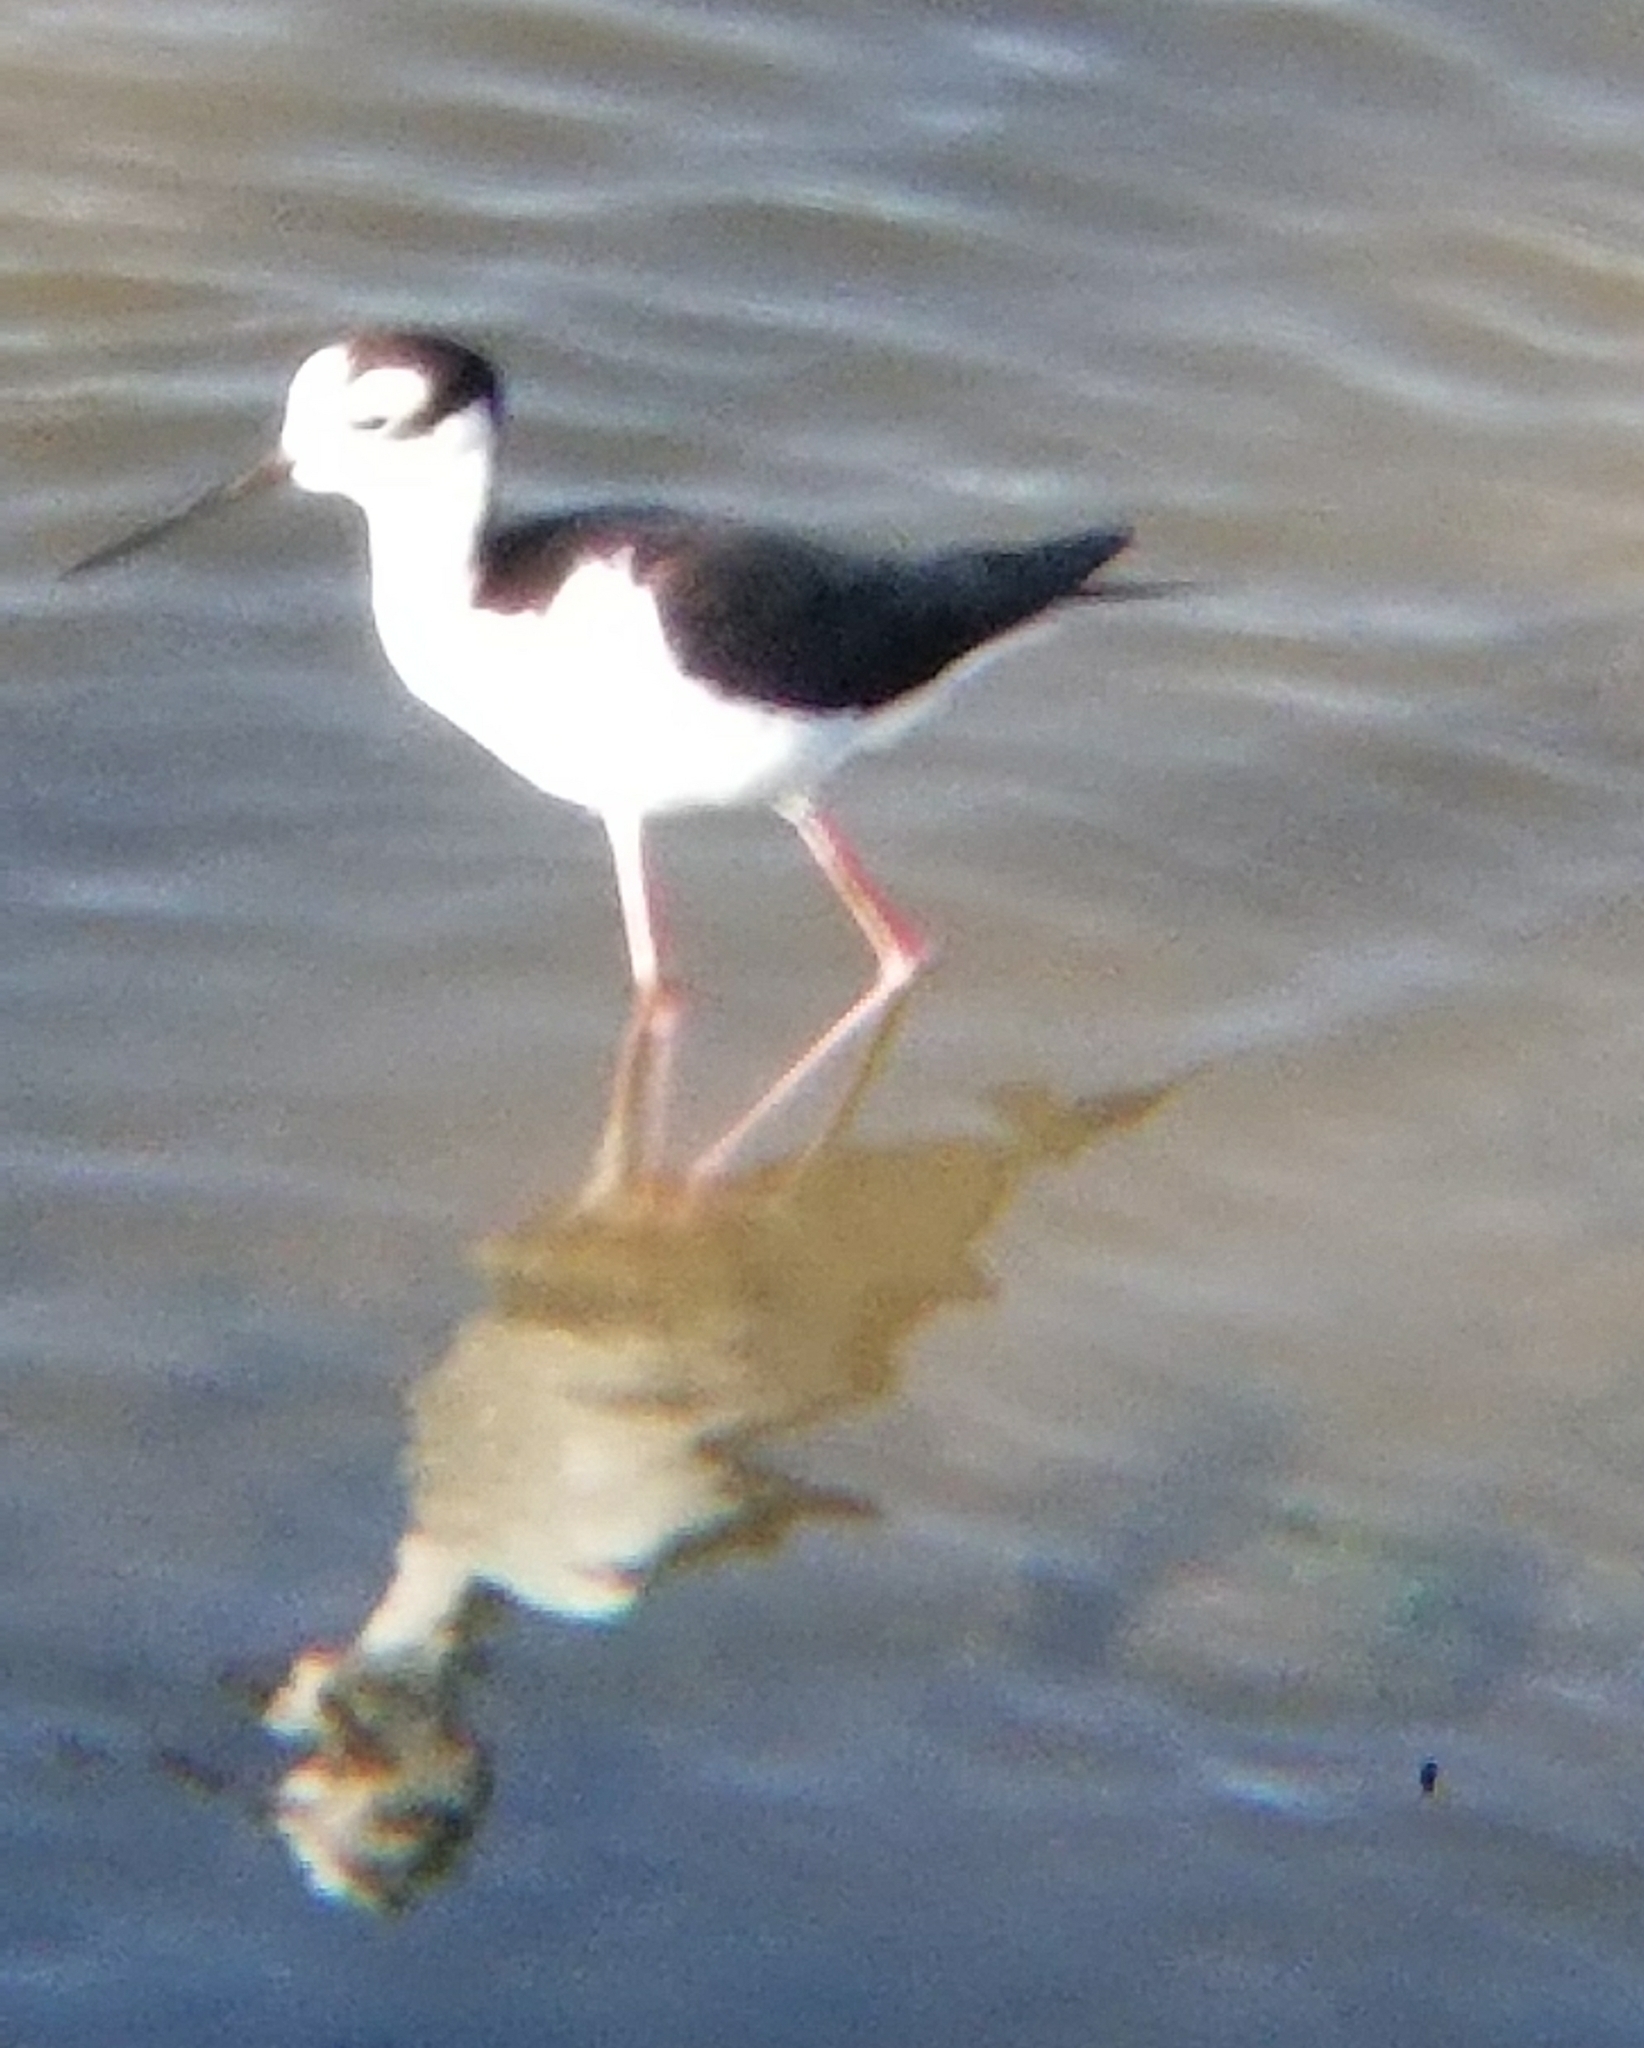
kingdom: Animalia
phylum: Chordata
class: Aves
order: Charadriiformes
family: Recurvirostridae
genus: Himantopus
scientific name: Himantopus mexicanus
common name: Black-necked stilt
